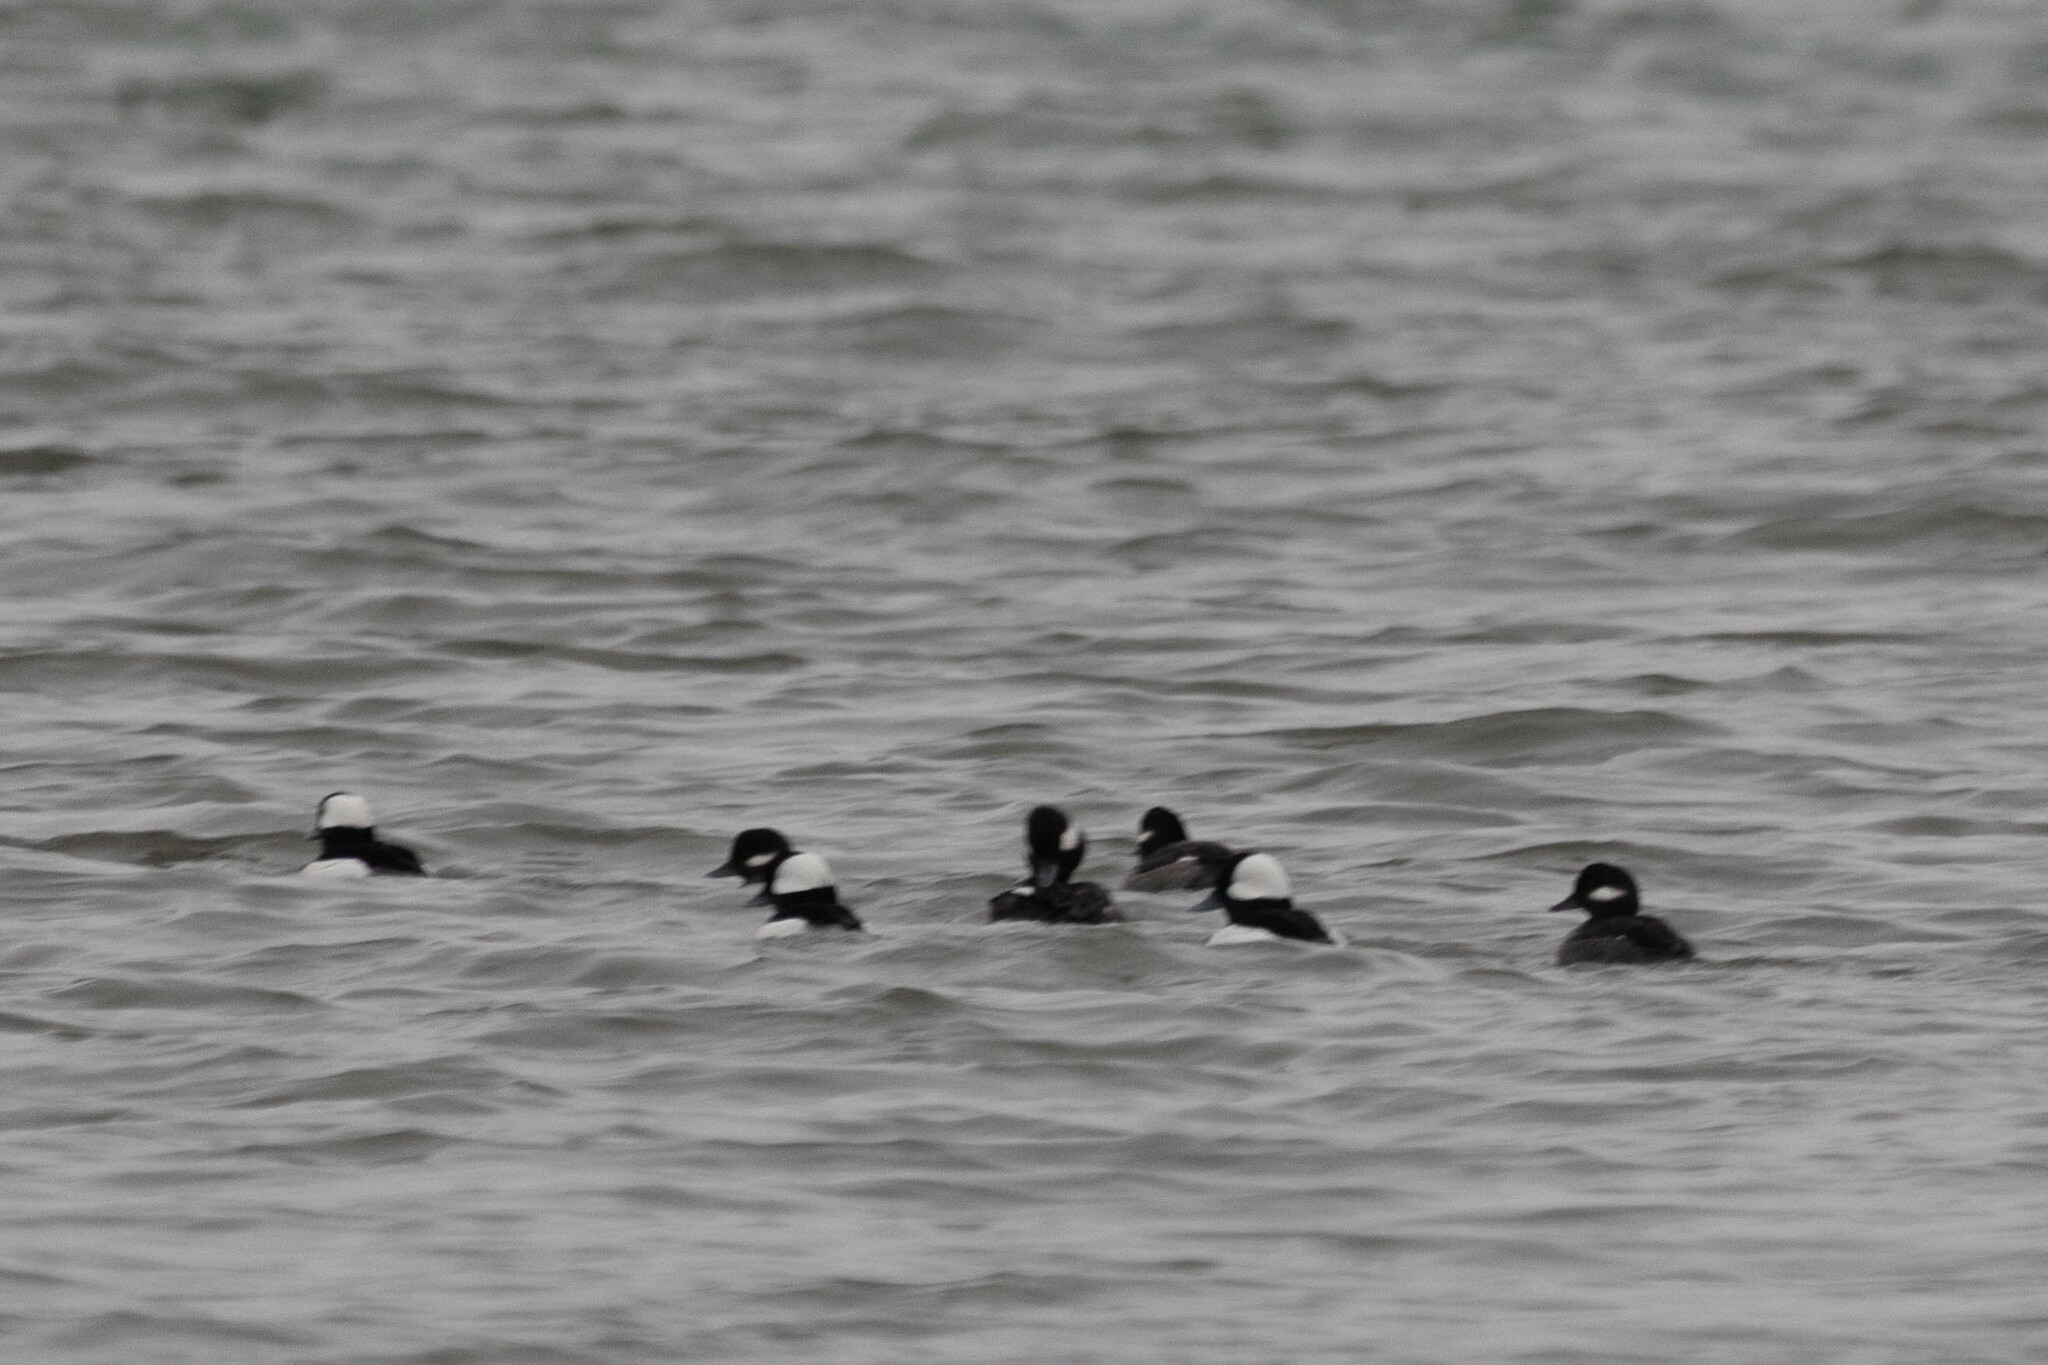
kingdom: Animalia
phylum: Chordata
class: Aves
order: Anseriformes
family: Anatidae
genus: Bucephala
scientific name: Bucephala albeola
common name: Bufflehead
